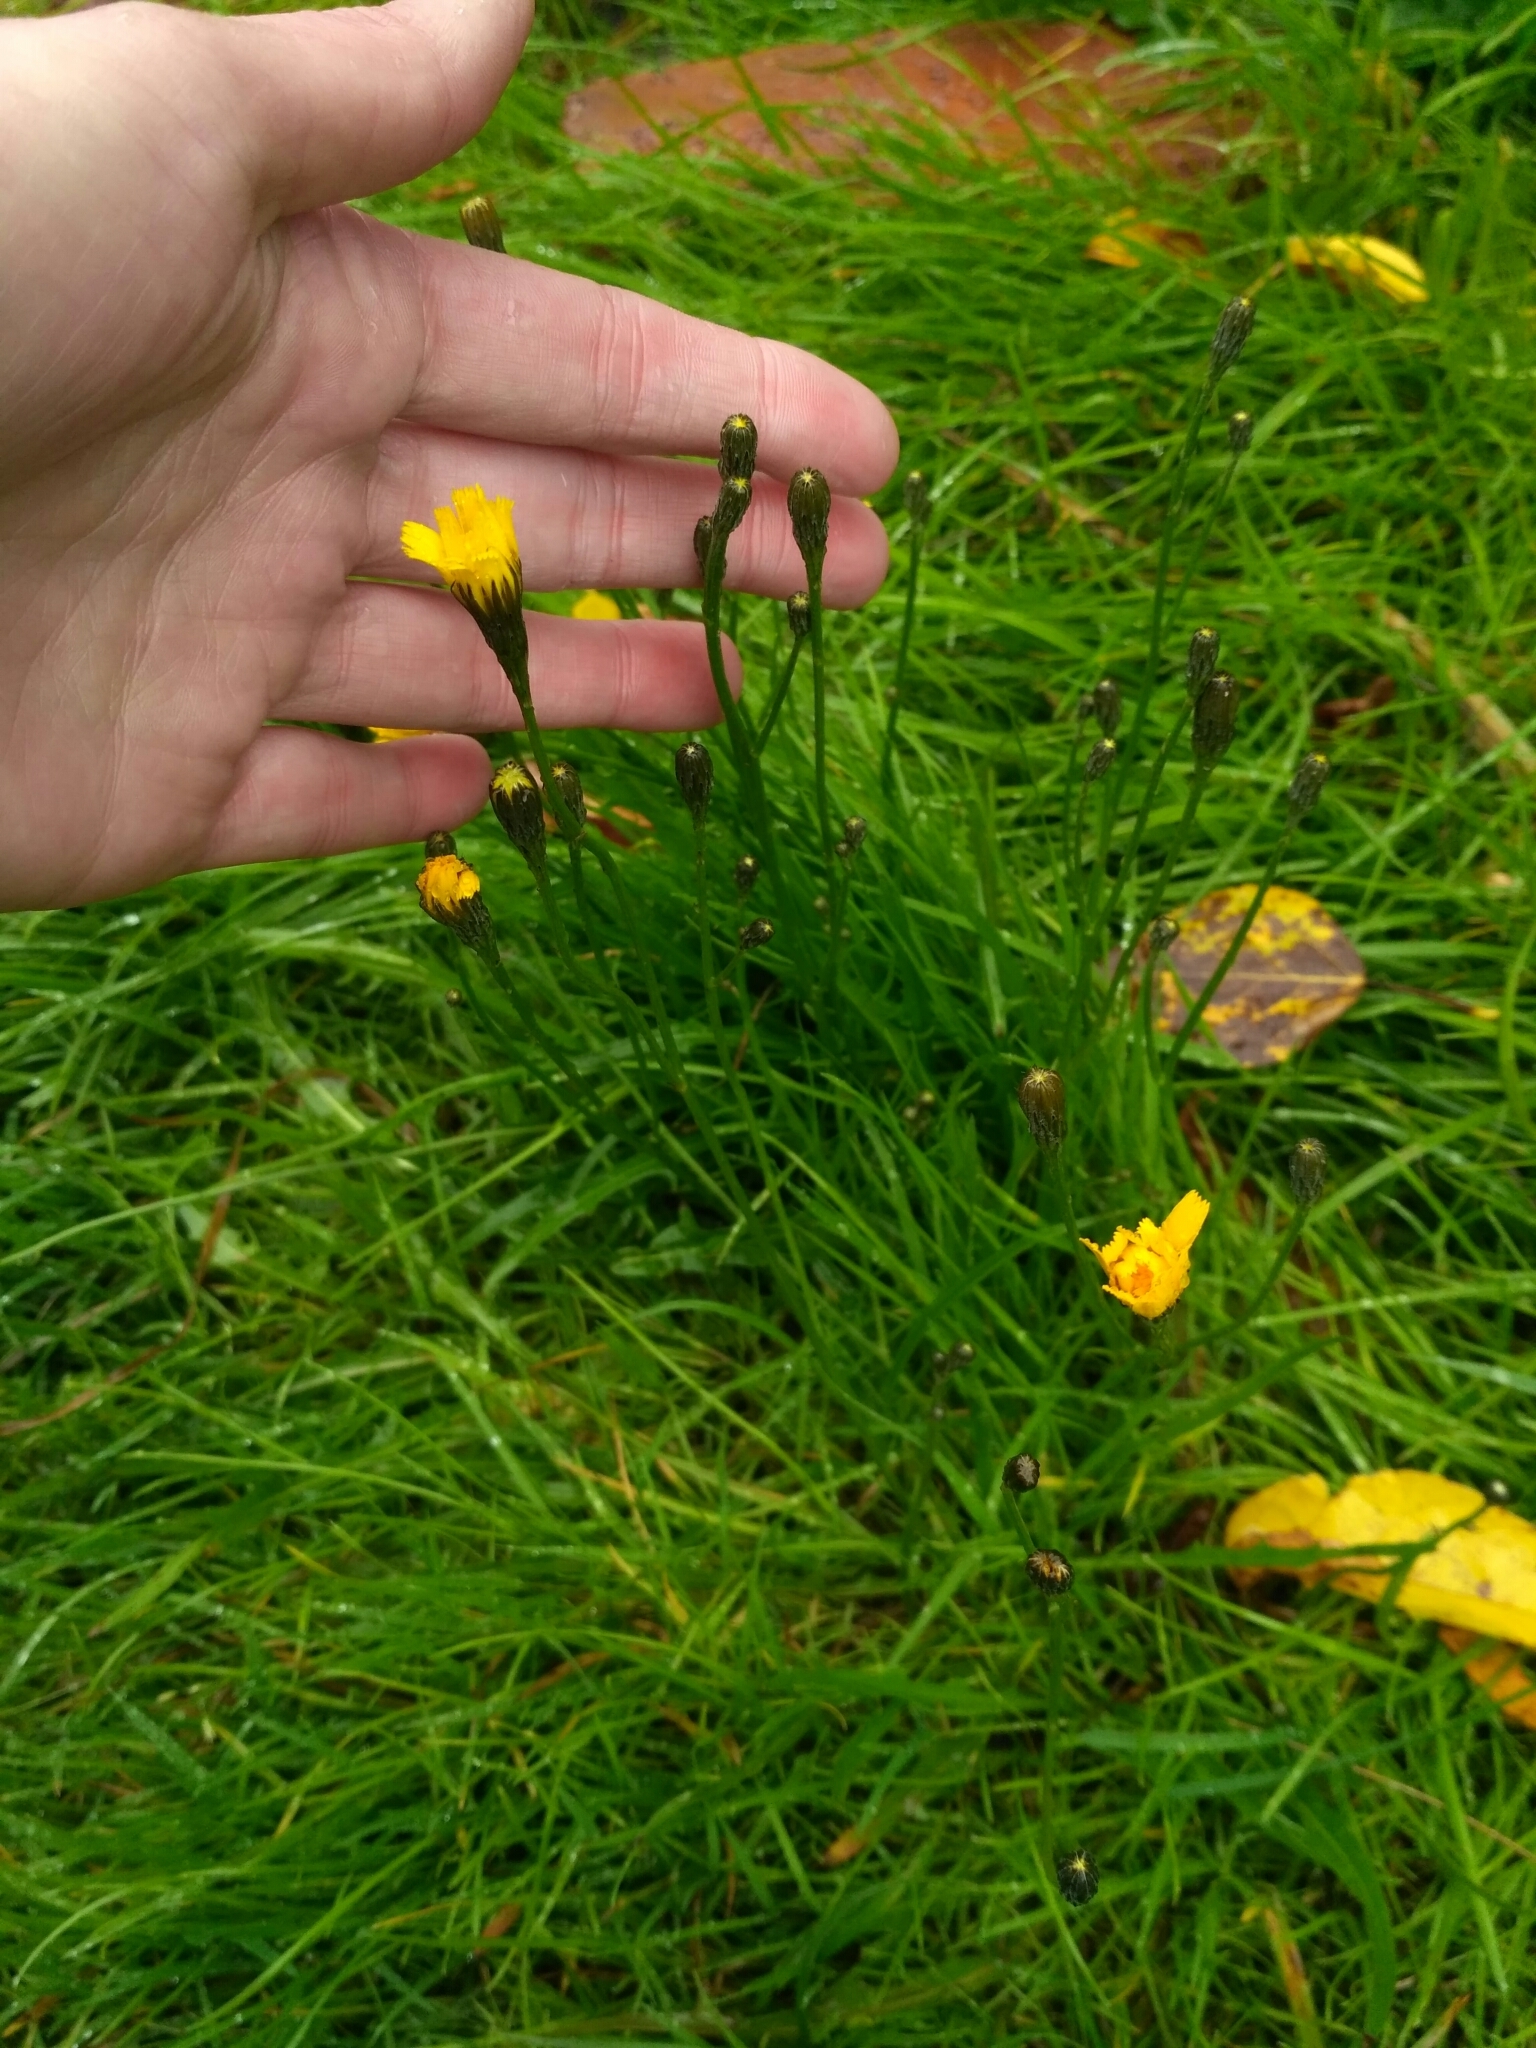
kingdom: Plantae
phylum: Tracheophyta
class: Magnoliopsida
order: Asterales
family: Asteraceae
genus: Scorzoneroides
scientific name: Scorzoneroides autumnalis
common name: Autumn hawkbit
